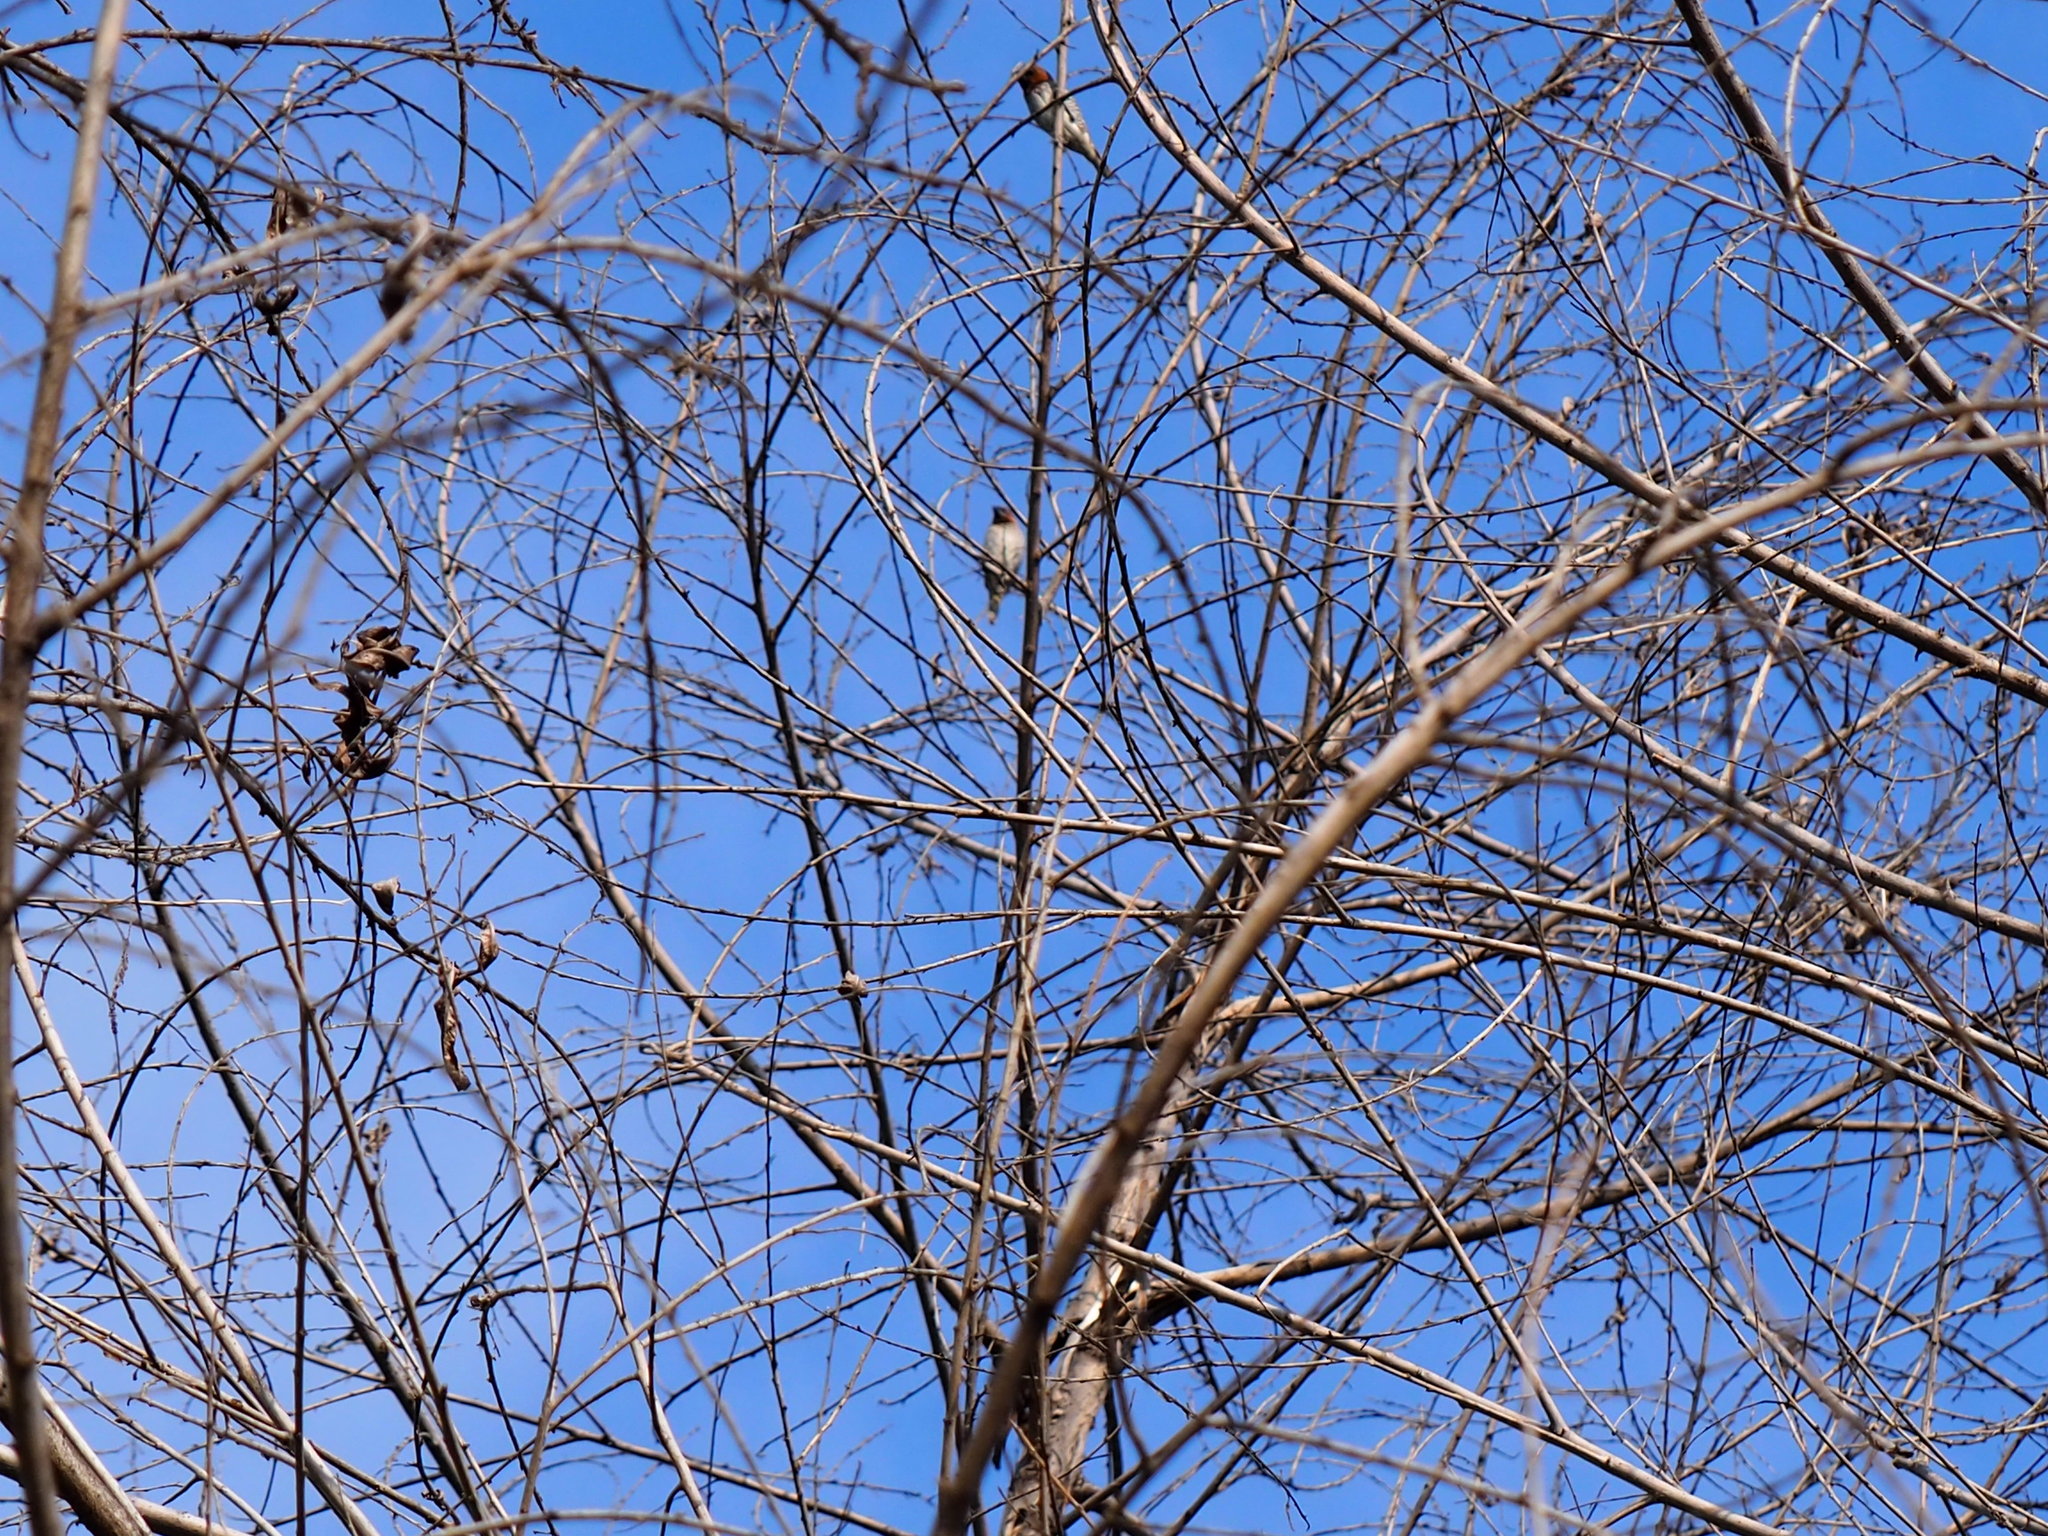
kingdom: Animalia
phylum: Chordata
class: Aves
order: Passeriformes
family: Estrildidae
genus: Lonchura
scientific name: Lonchura punctulata
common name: Scaly-breasted munia
